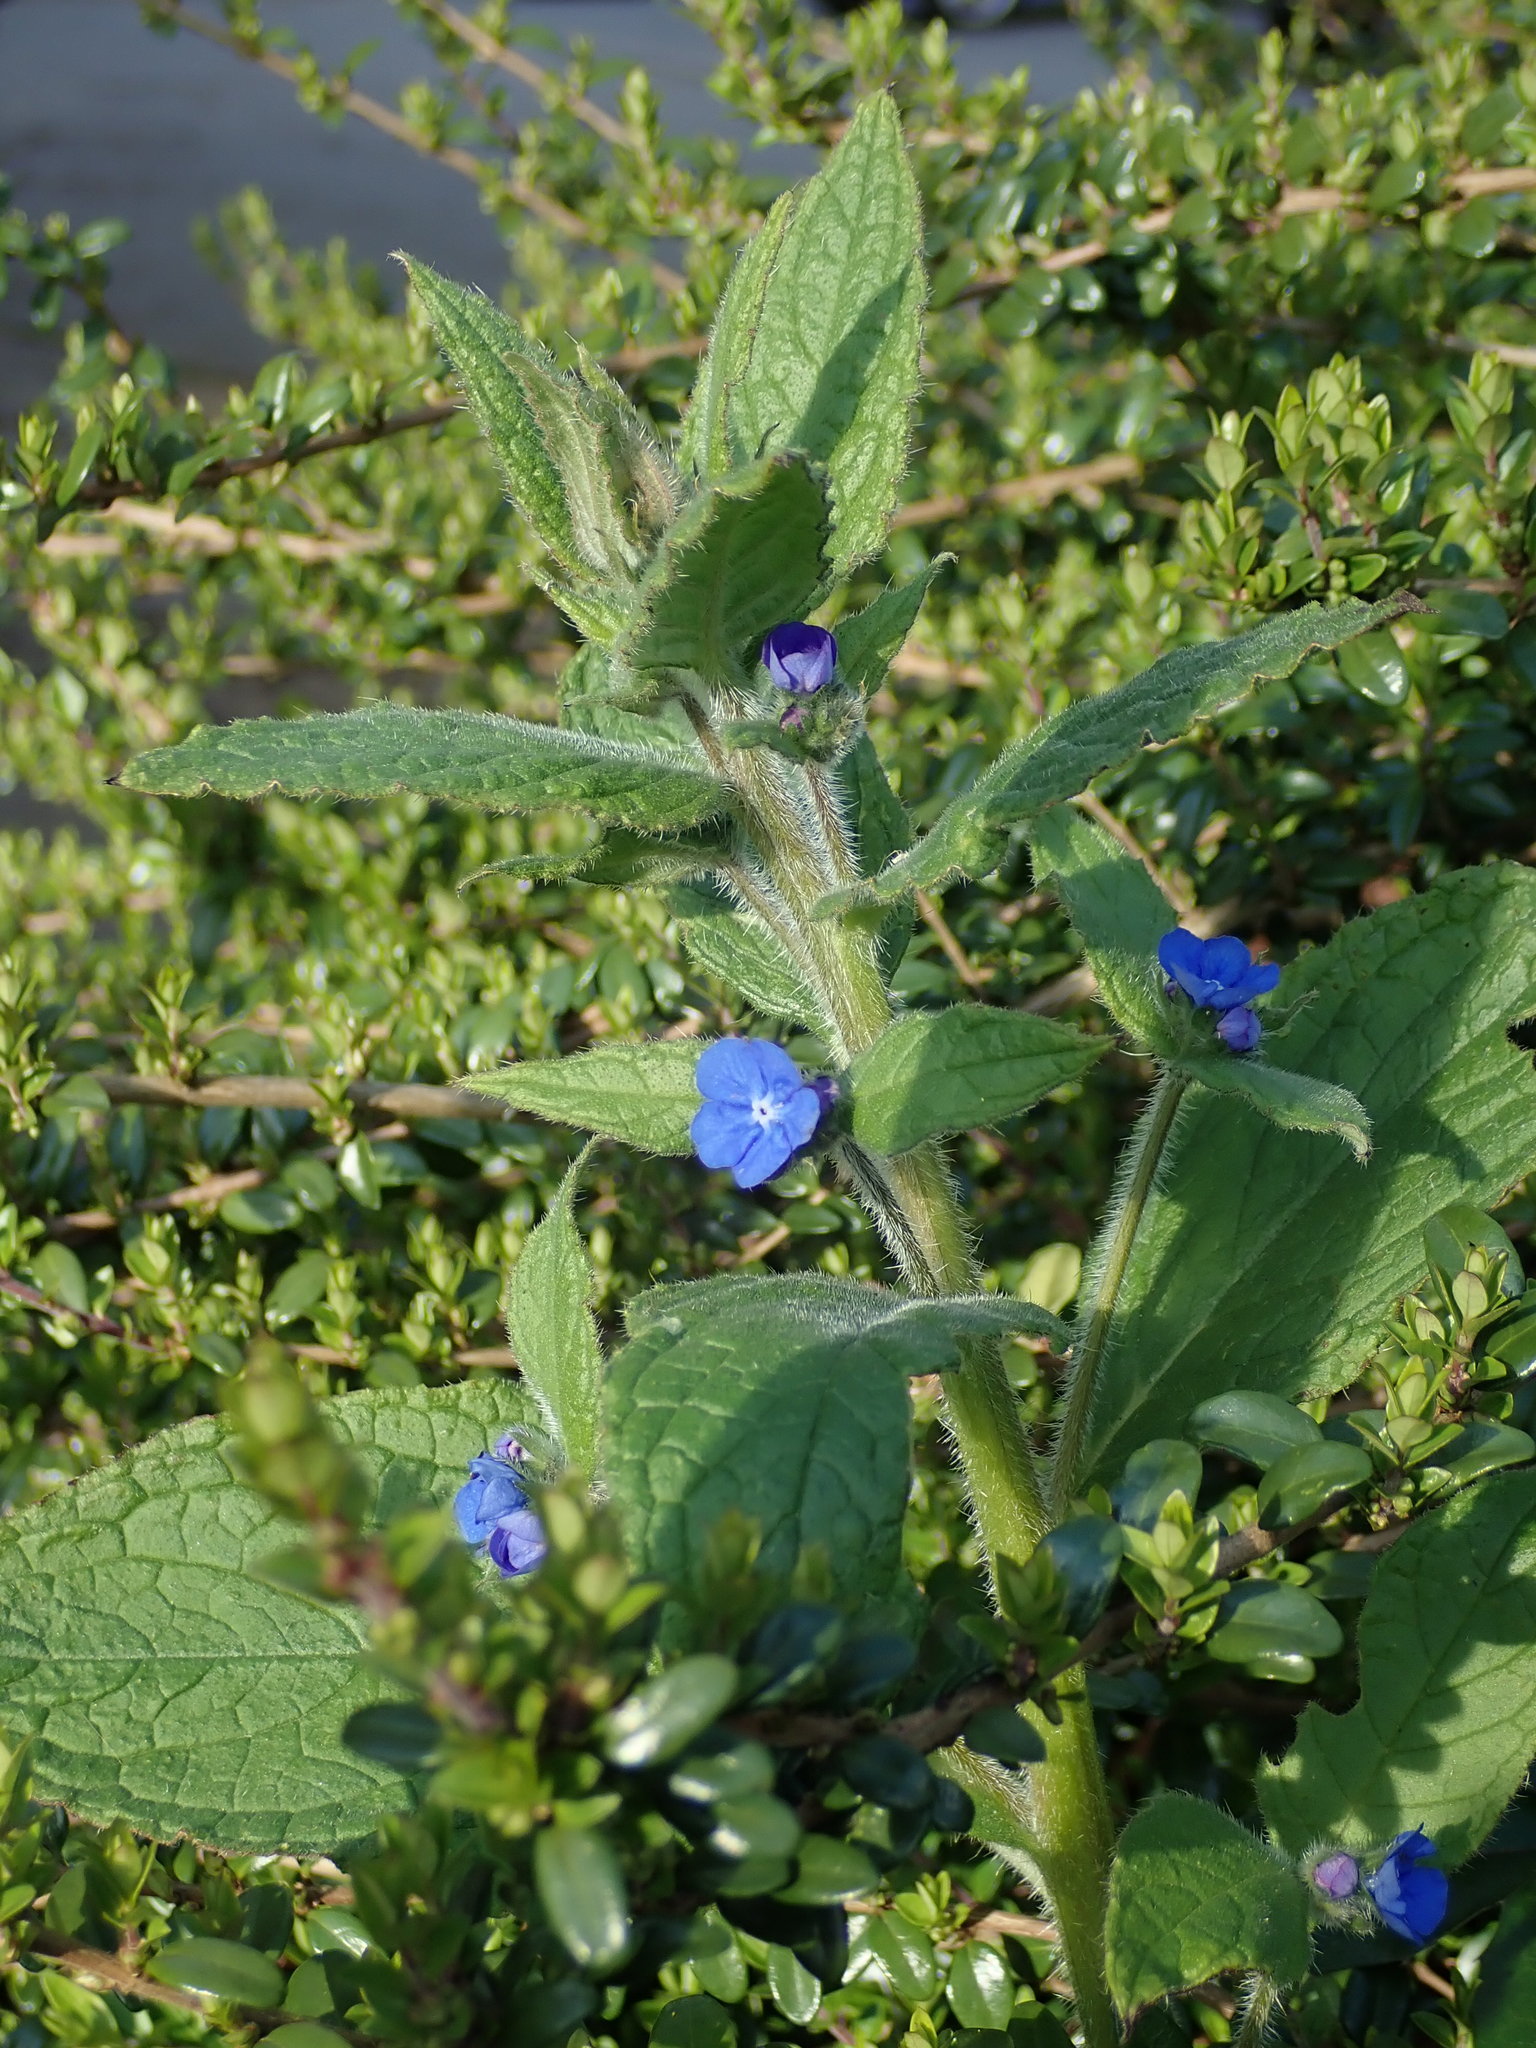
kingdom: Plantae
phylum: Tracheophyta
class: Magnoliopsida
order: Boraginales
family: Boraginaceae
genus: Pentaglottis
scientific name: Pentaglottis sempervirens
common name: Green alkanet
